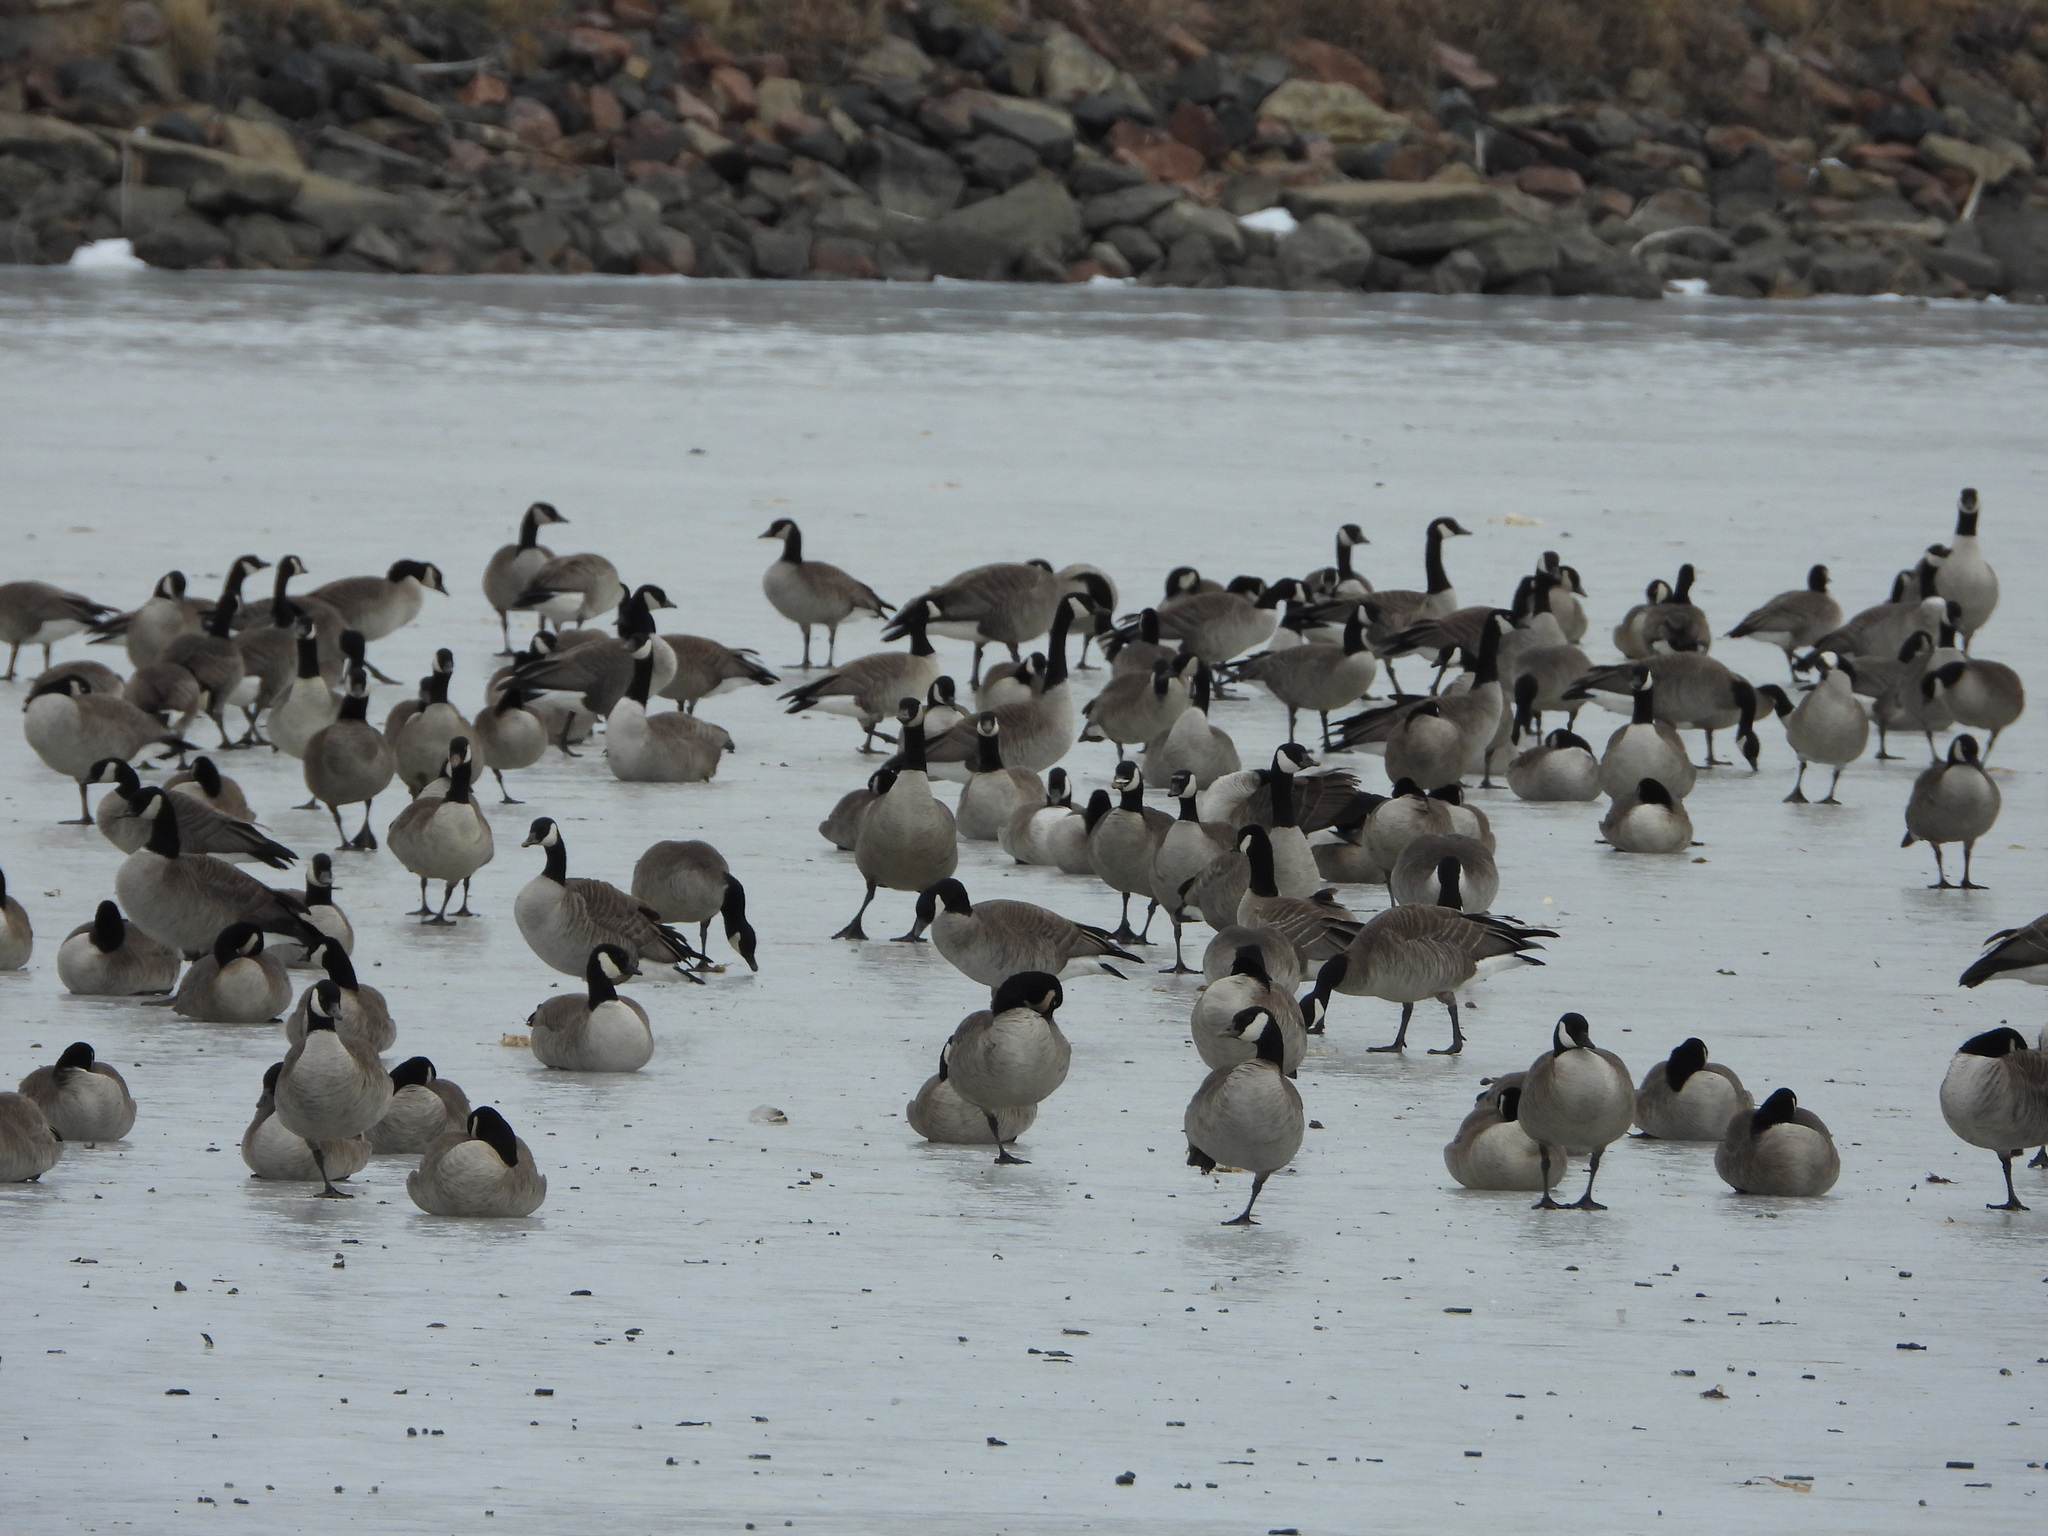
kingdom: Animalia
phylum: Chordata
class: Aves
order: Anseriformes
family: Anatidae
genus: Branta
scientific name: Branta hutchinsii
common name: Cackling goose
